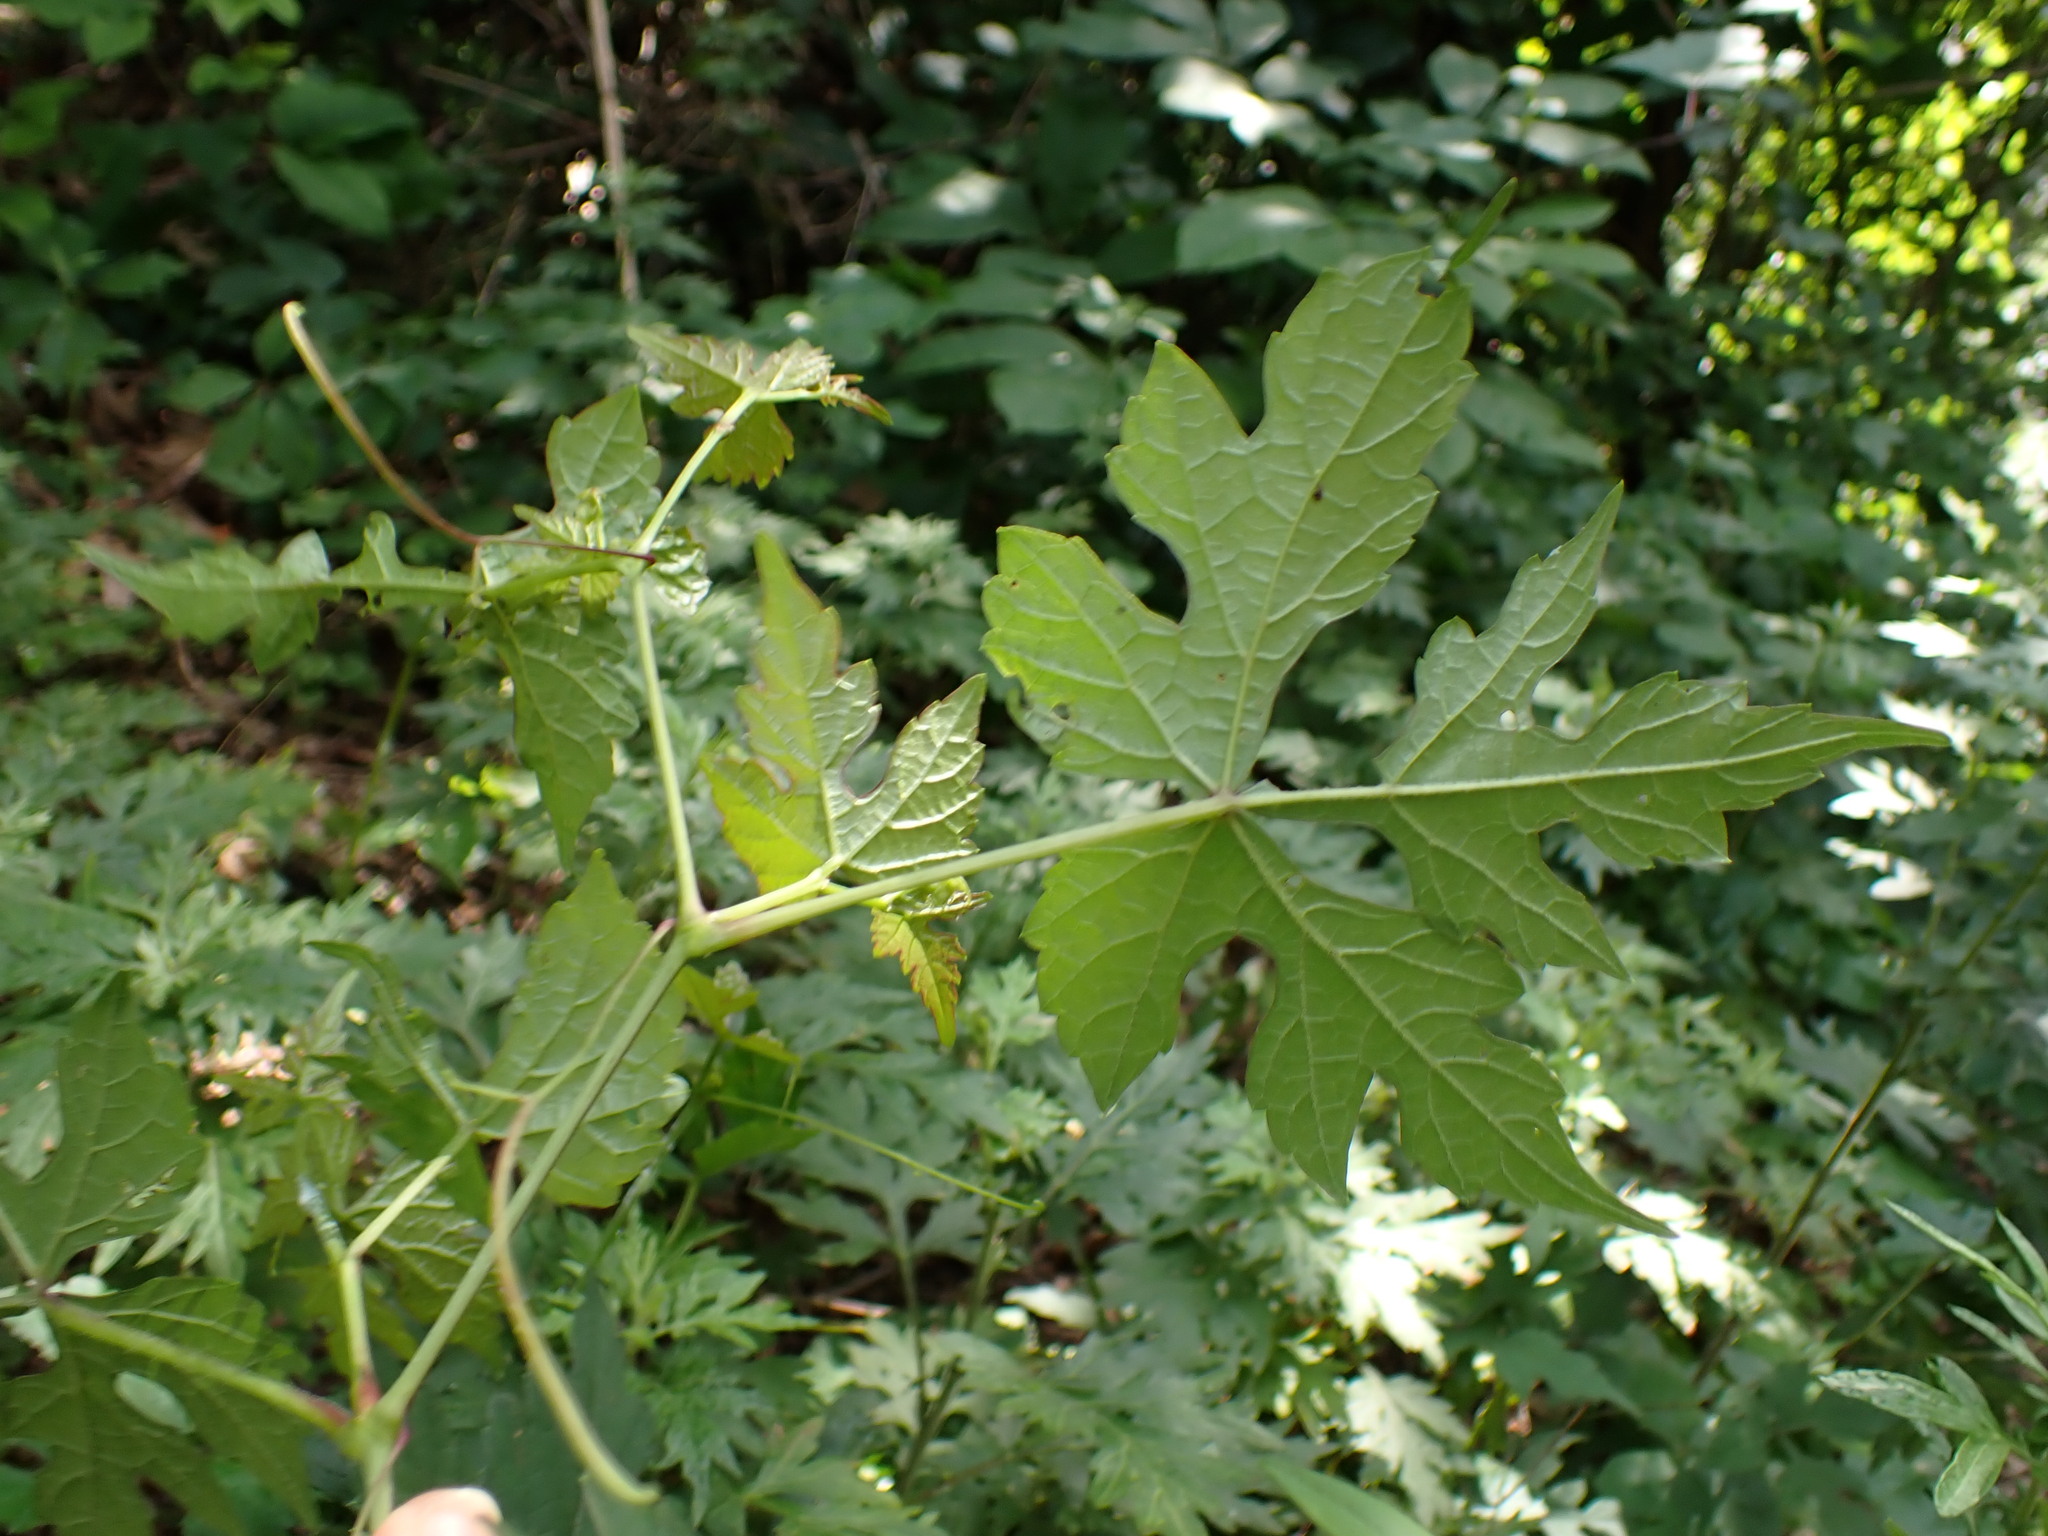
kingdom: Plantae
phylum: Tracheophyta
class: Magnoliopsida
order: Vitales
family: Vitaceae
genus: Ampelopsis
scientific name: Ampelopsis glandulosa
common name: Amur peppervine
